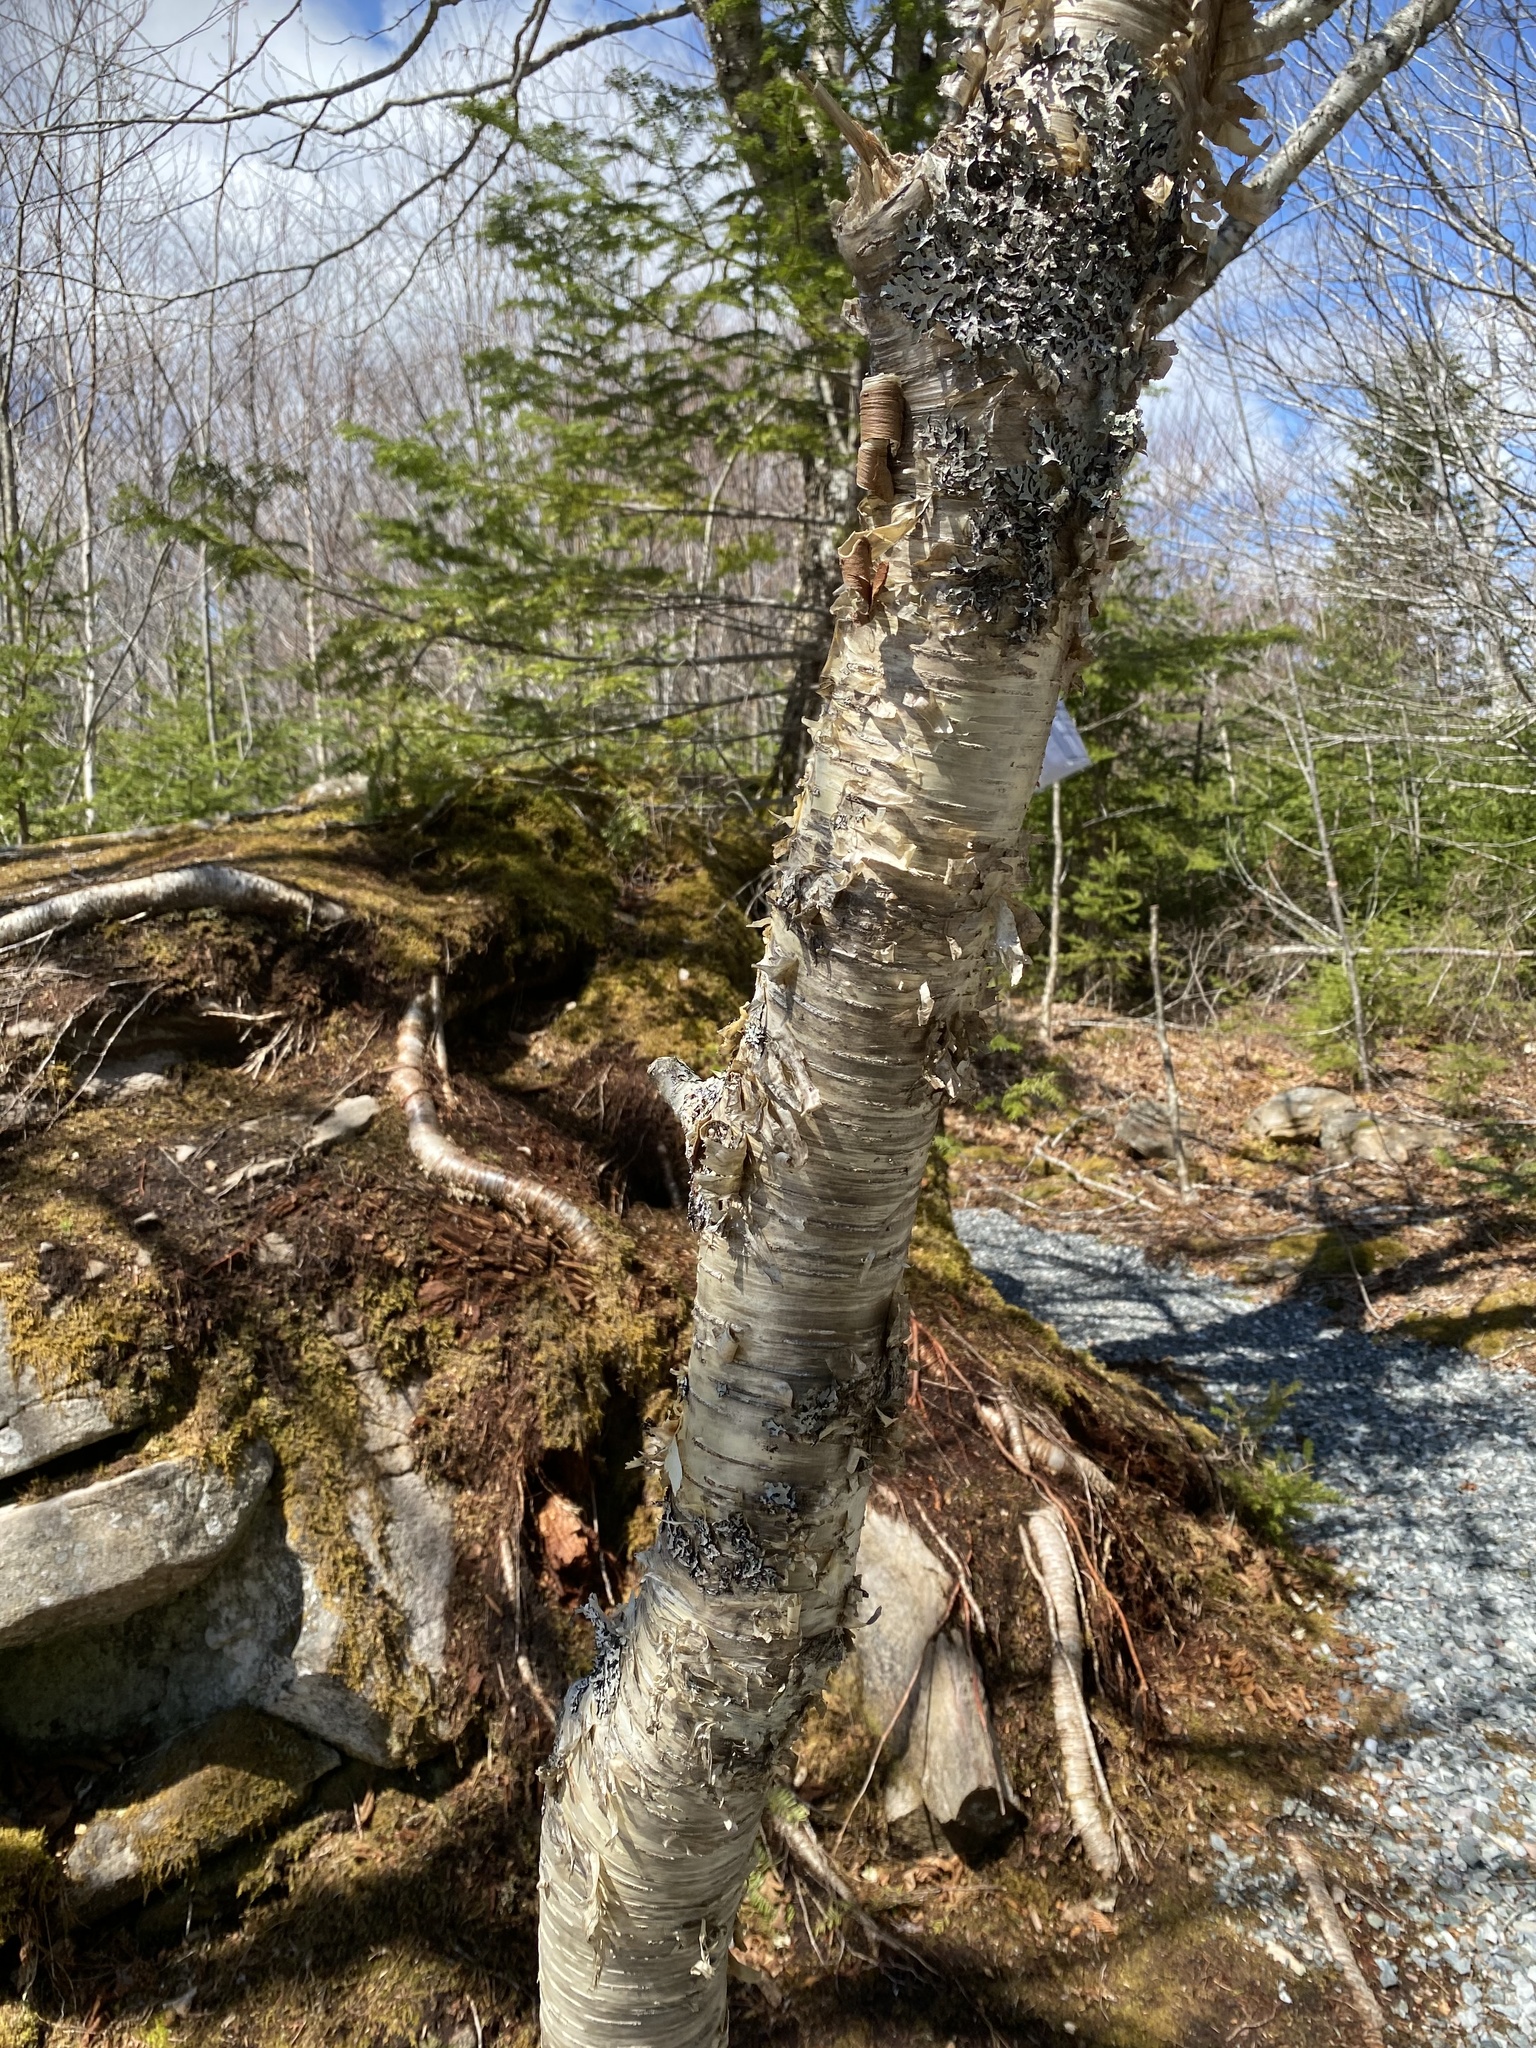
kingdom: Plantae
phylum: Tracheophyta
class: Magnoliopsida
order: Fagales
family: Betulaceae
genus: Betula
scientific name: Betula alleghaniensis
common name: Yellow birch
